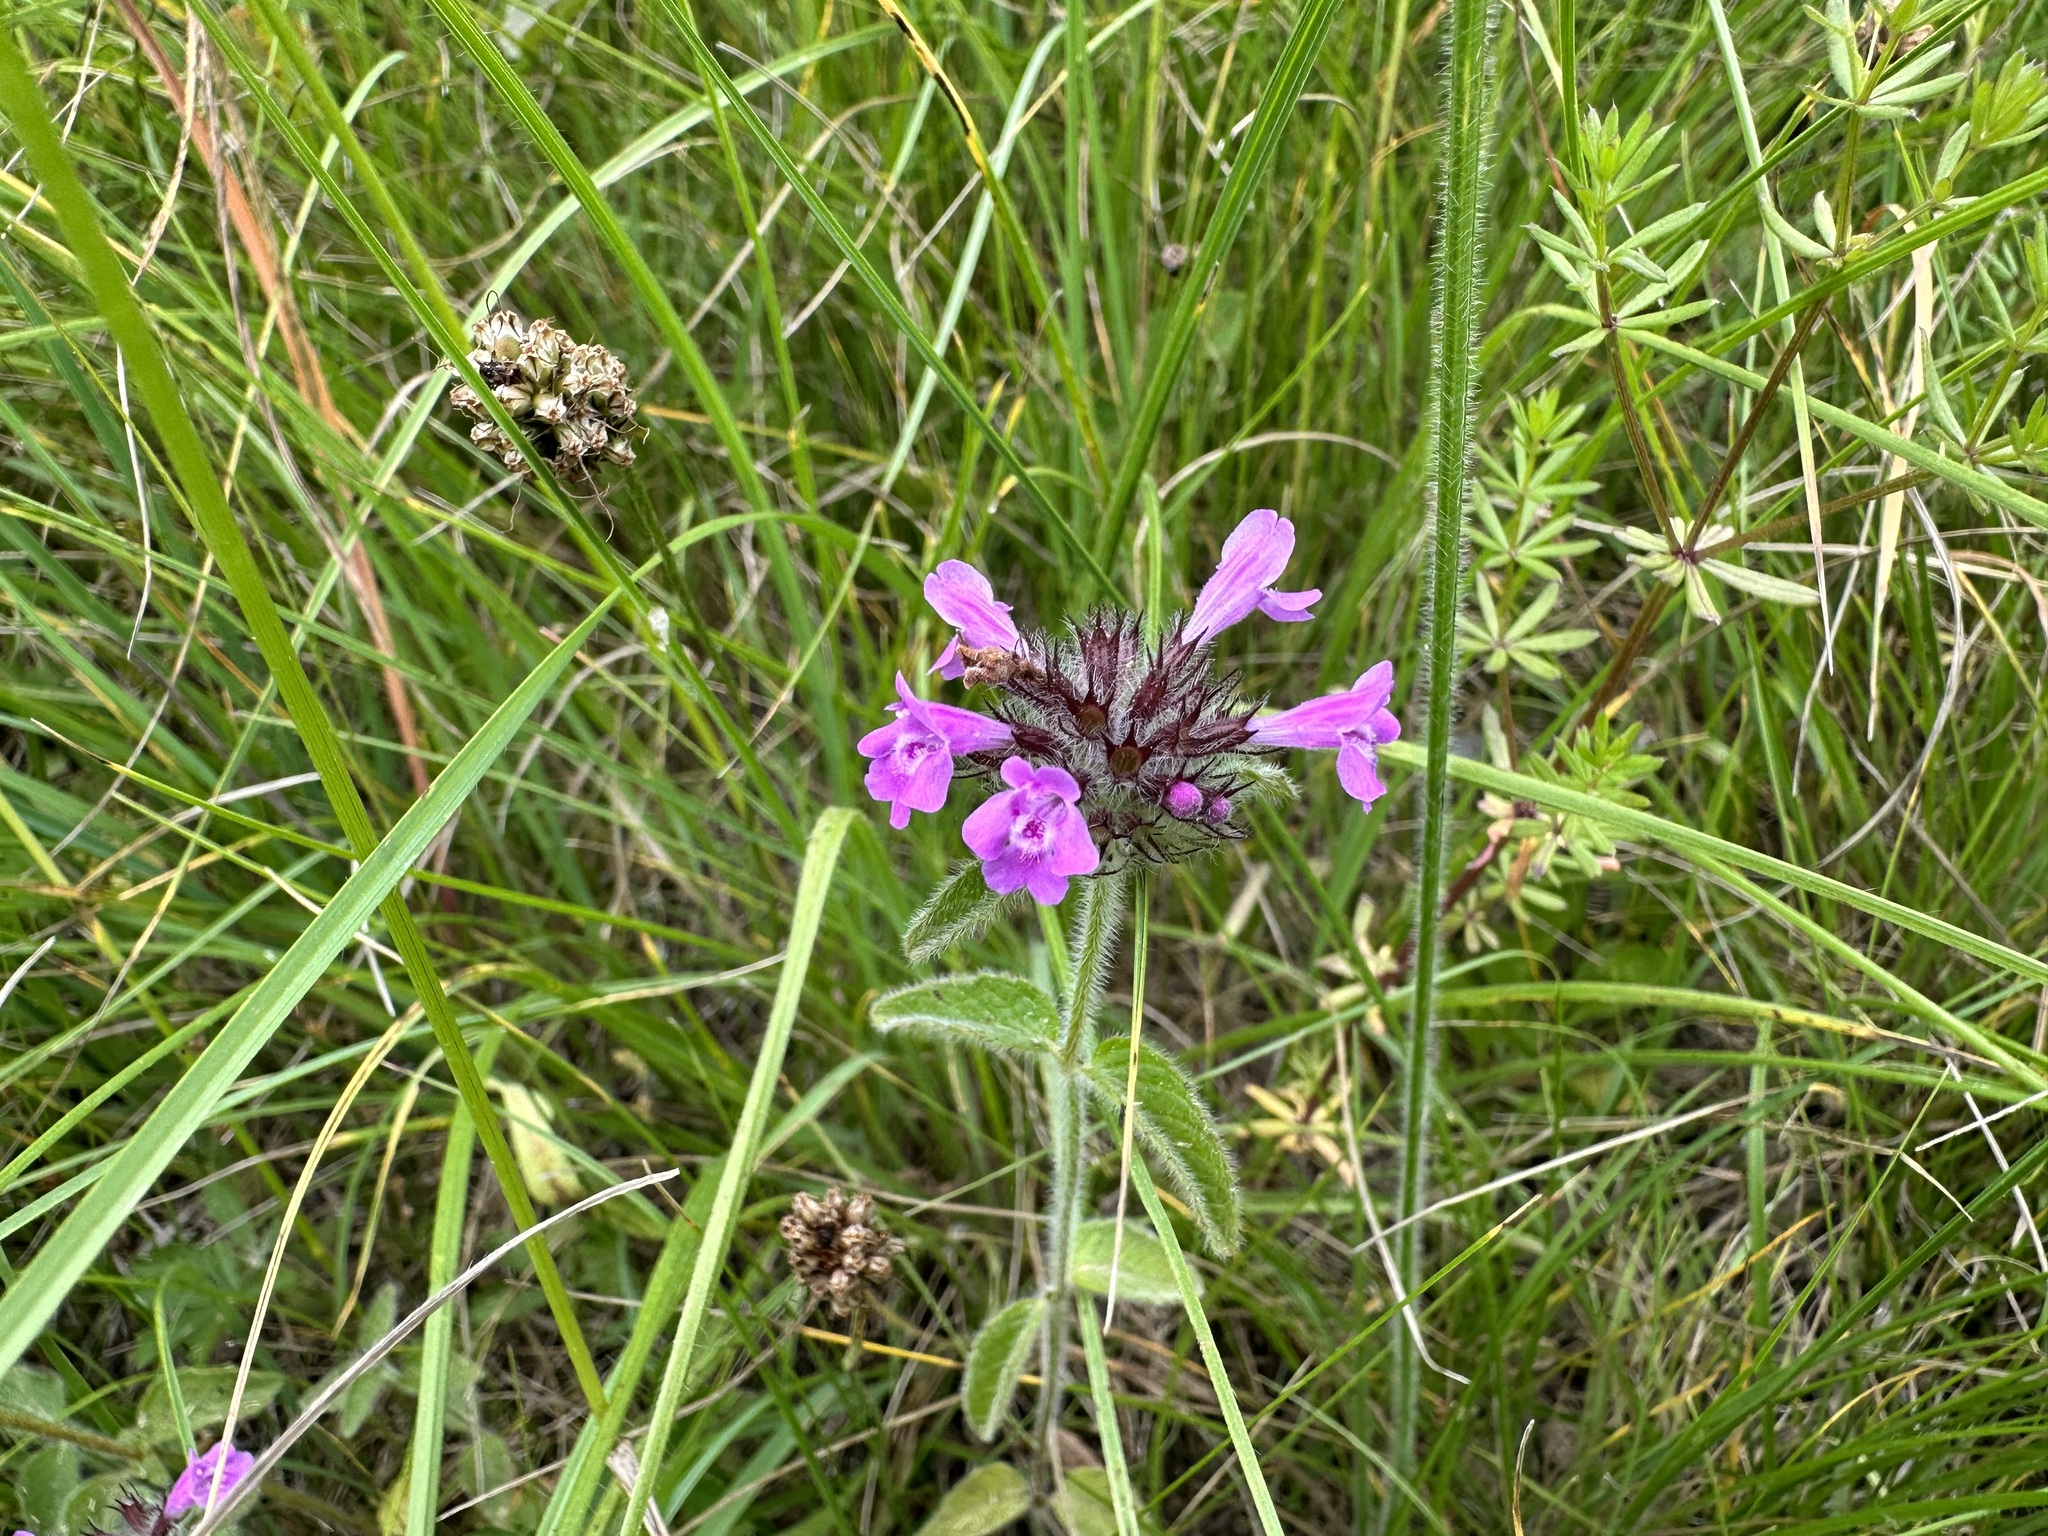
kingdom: Plantae
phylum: Tracheophyta
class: Magnoliopsida
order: Lamiales
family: Lamiaceae
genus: Clinopodium
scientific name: Clinopodium vulgare
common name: Wild basil
